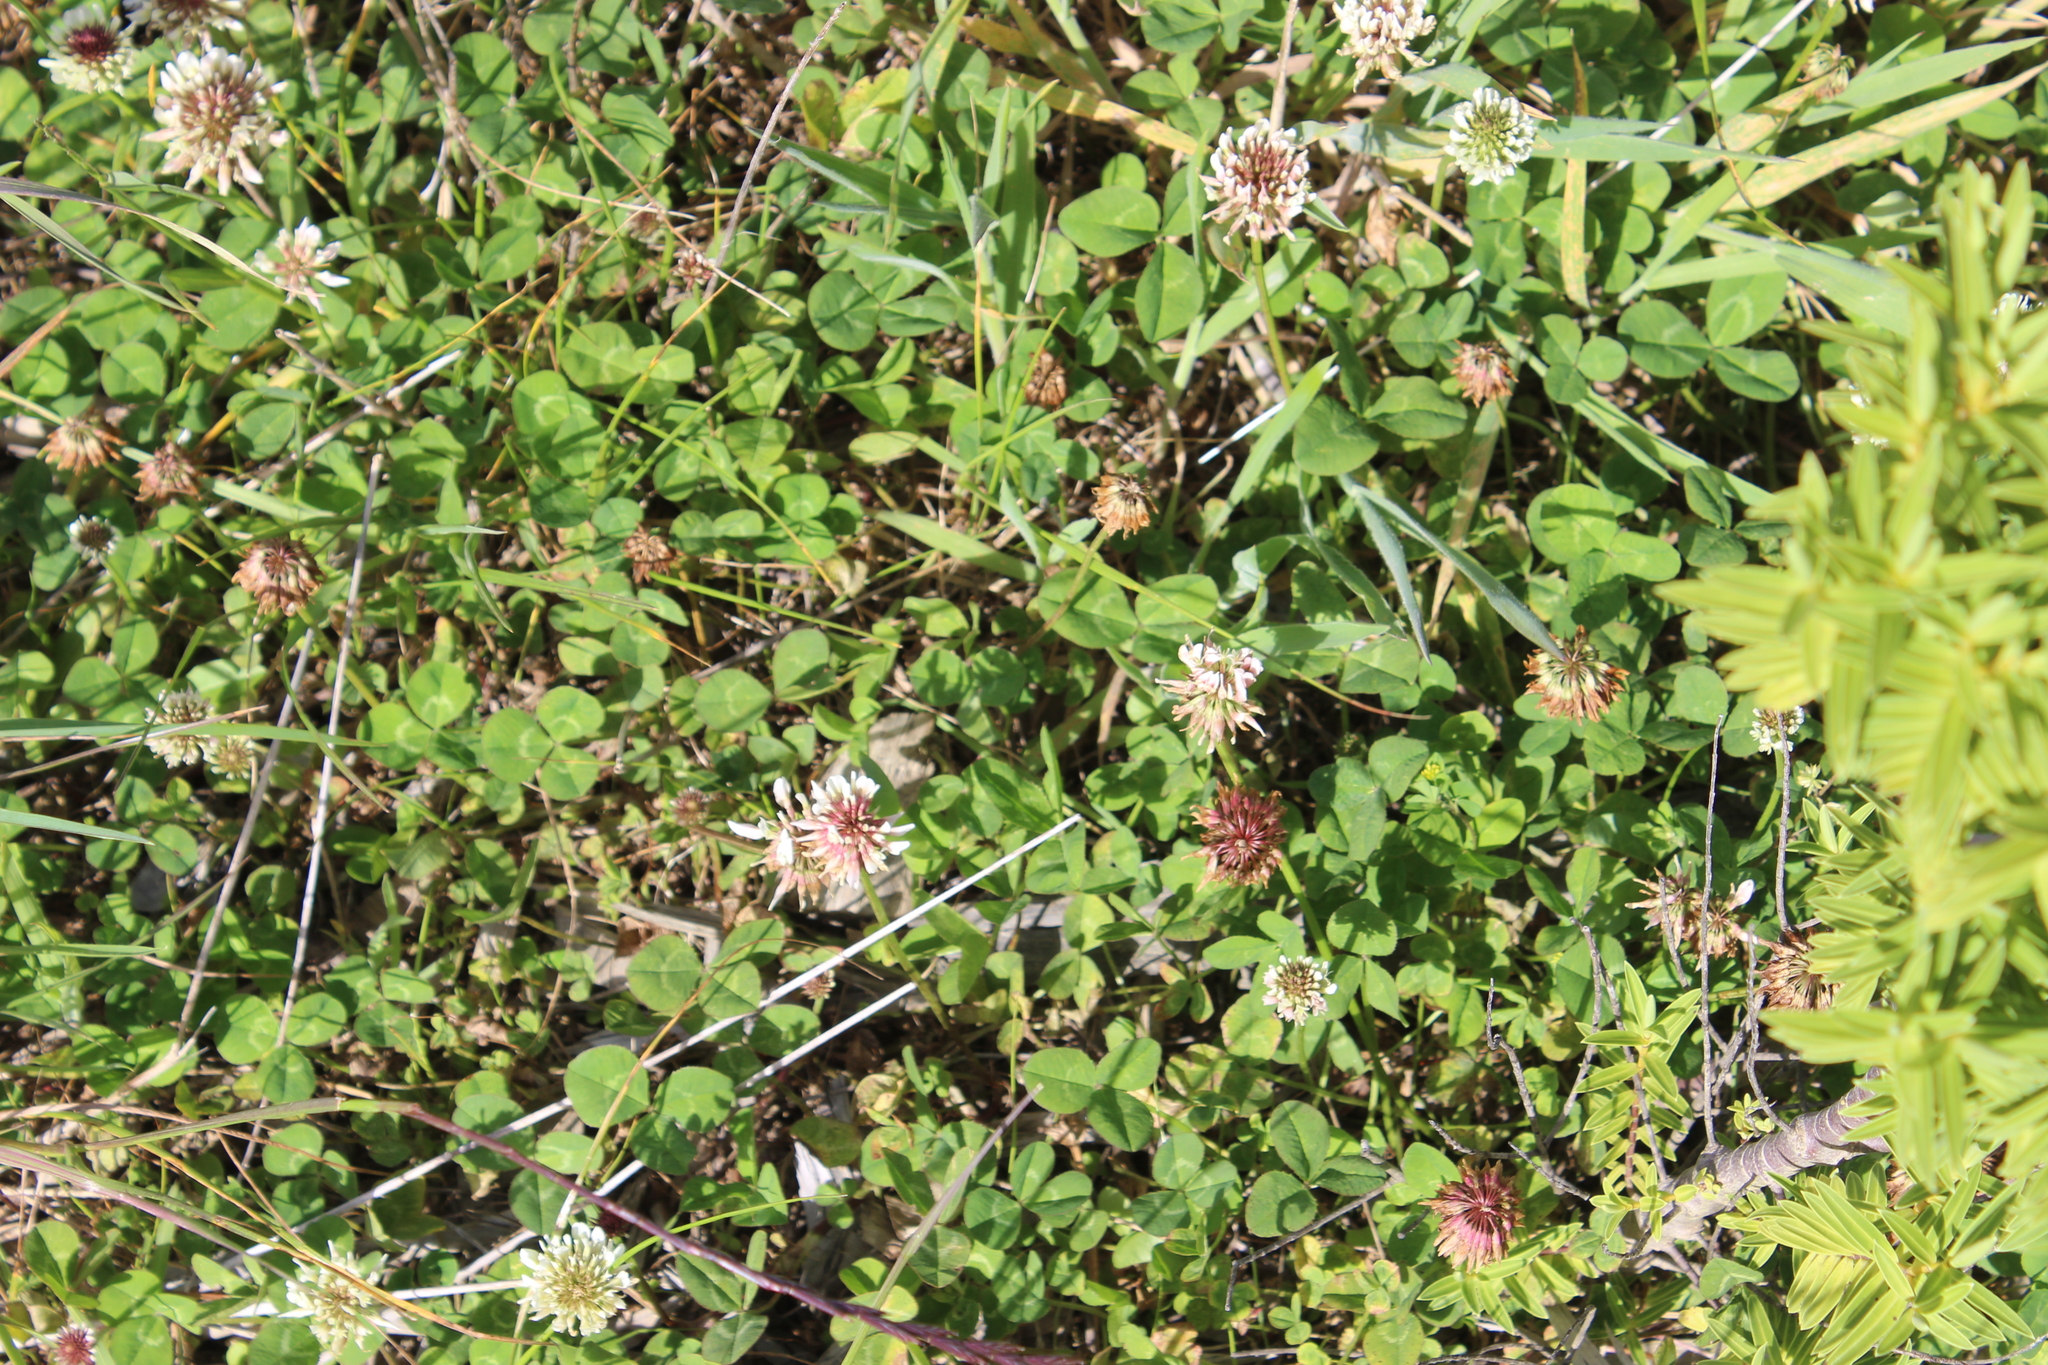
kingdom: Plantae
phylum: Tracheophyta
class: Magnoliopsida
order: Fabales
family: Fabaceae
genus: Trifolium
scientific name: Trifolium repens
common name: White clover
